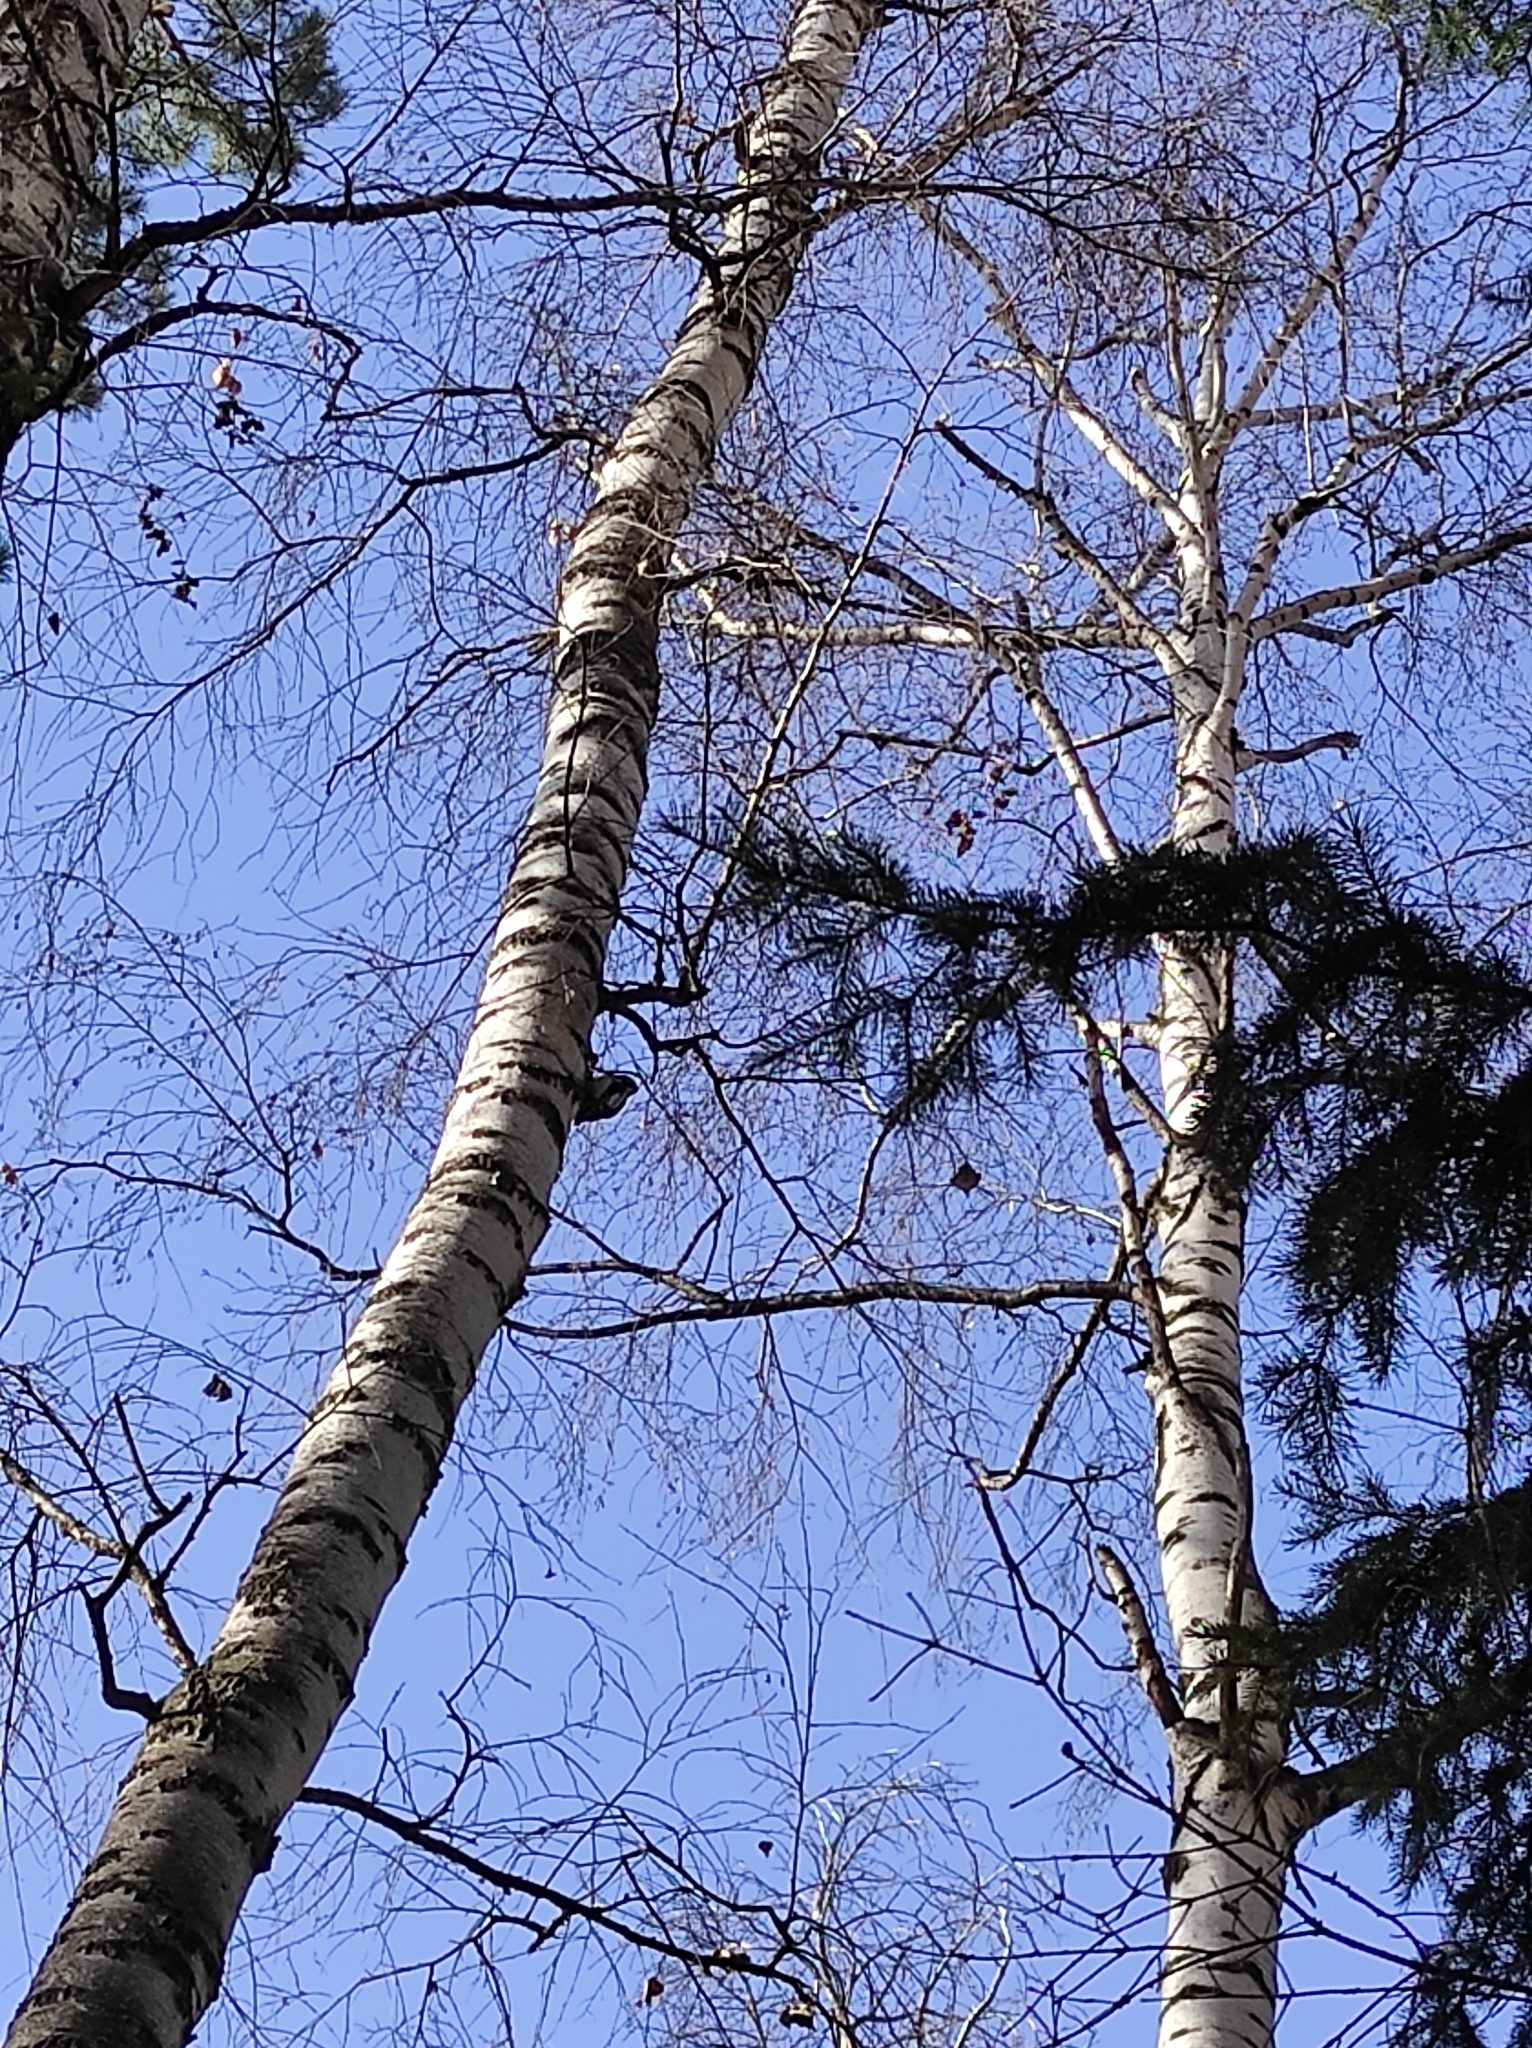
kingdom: Animalia
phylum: Chordata
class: Aves
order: Piciformes
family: Picidae
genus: Dendrocopos
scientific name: Dendrocopos major
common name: Great spotted woodpecker
